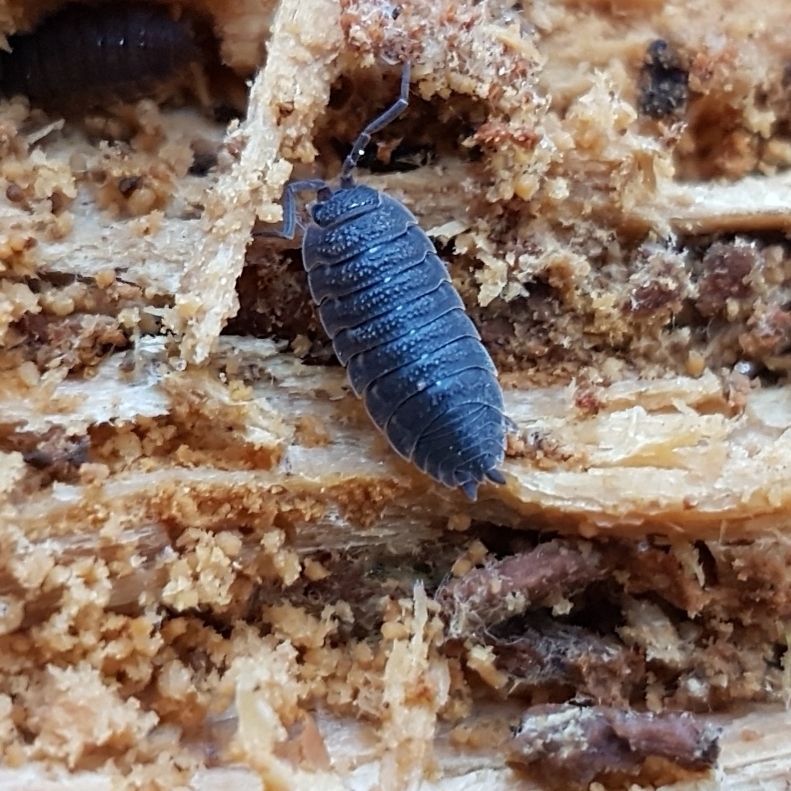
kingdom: Animalia
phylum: Arthropoda
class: Malacostraca
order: Isopoda
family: Porcellionidae
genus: Porcellio
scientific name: Porcellio scaber
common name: Common rough woodlouse
